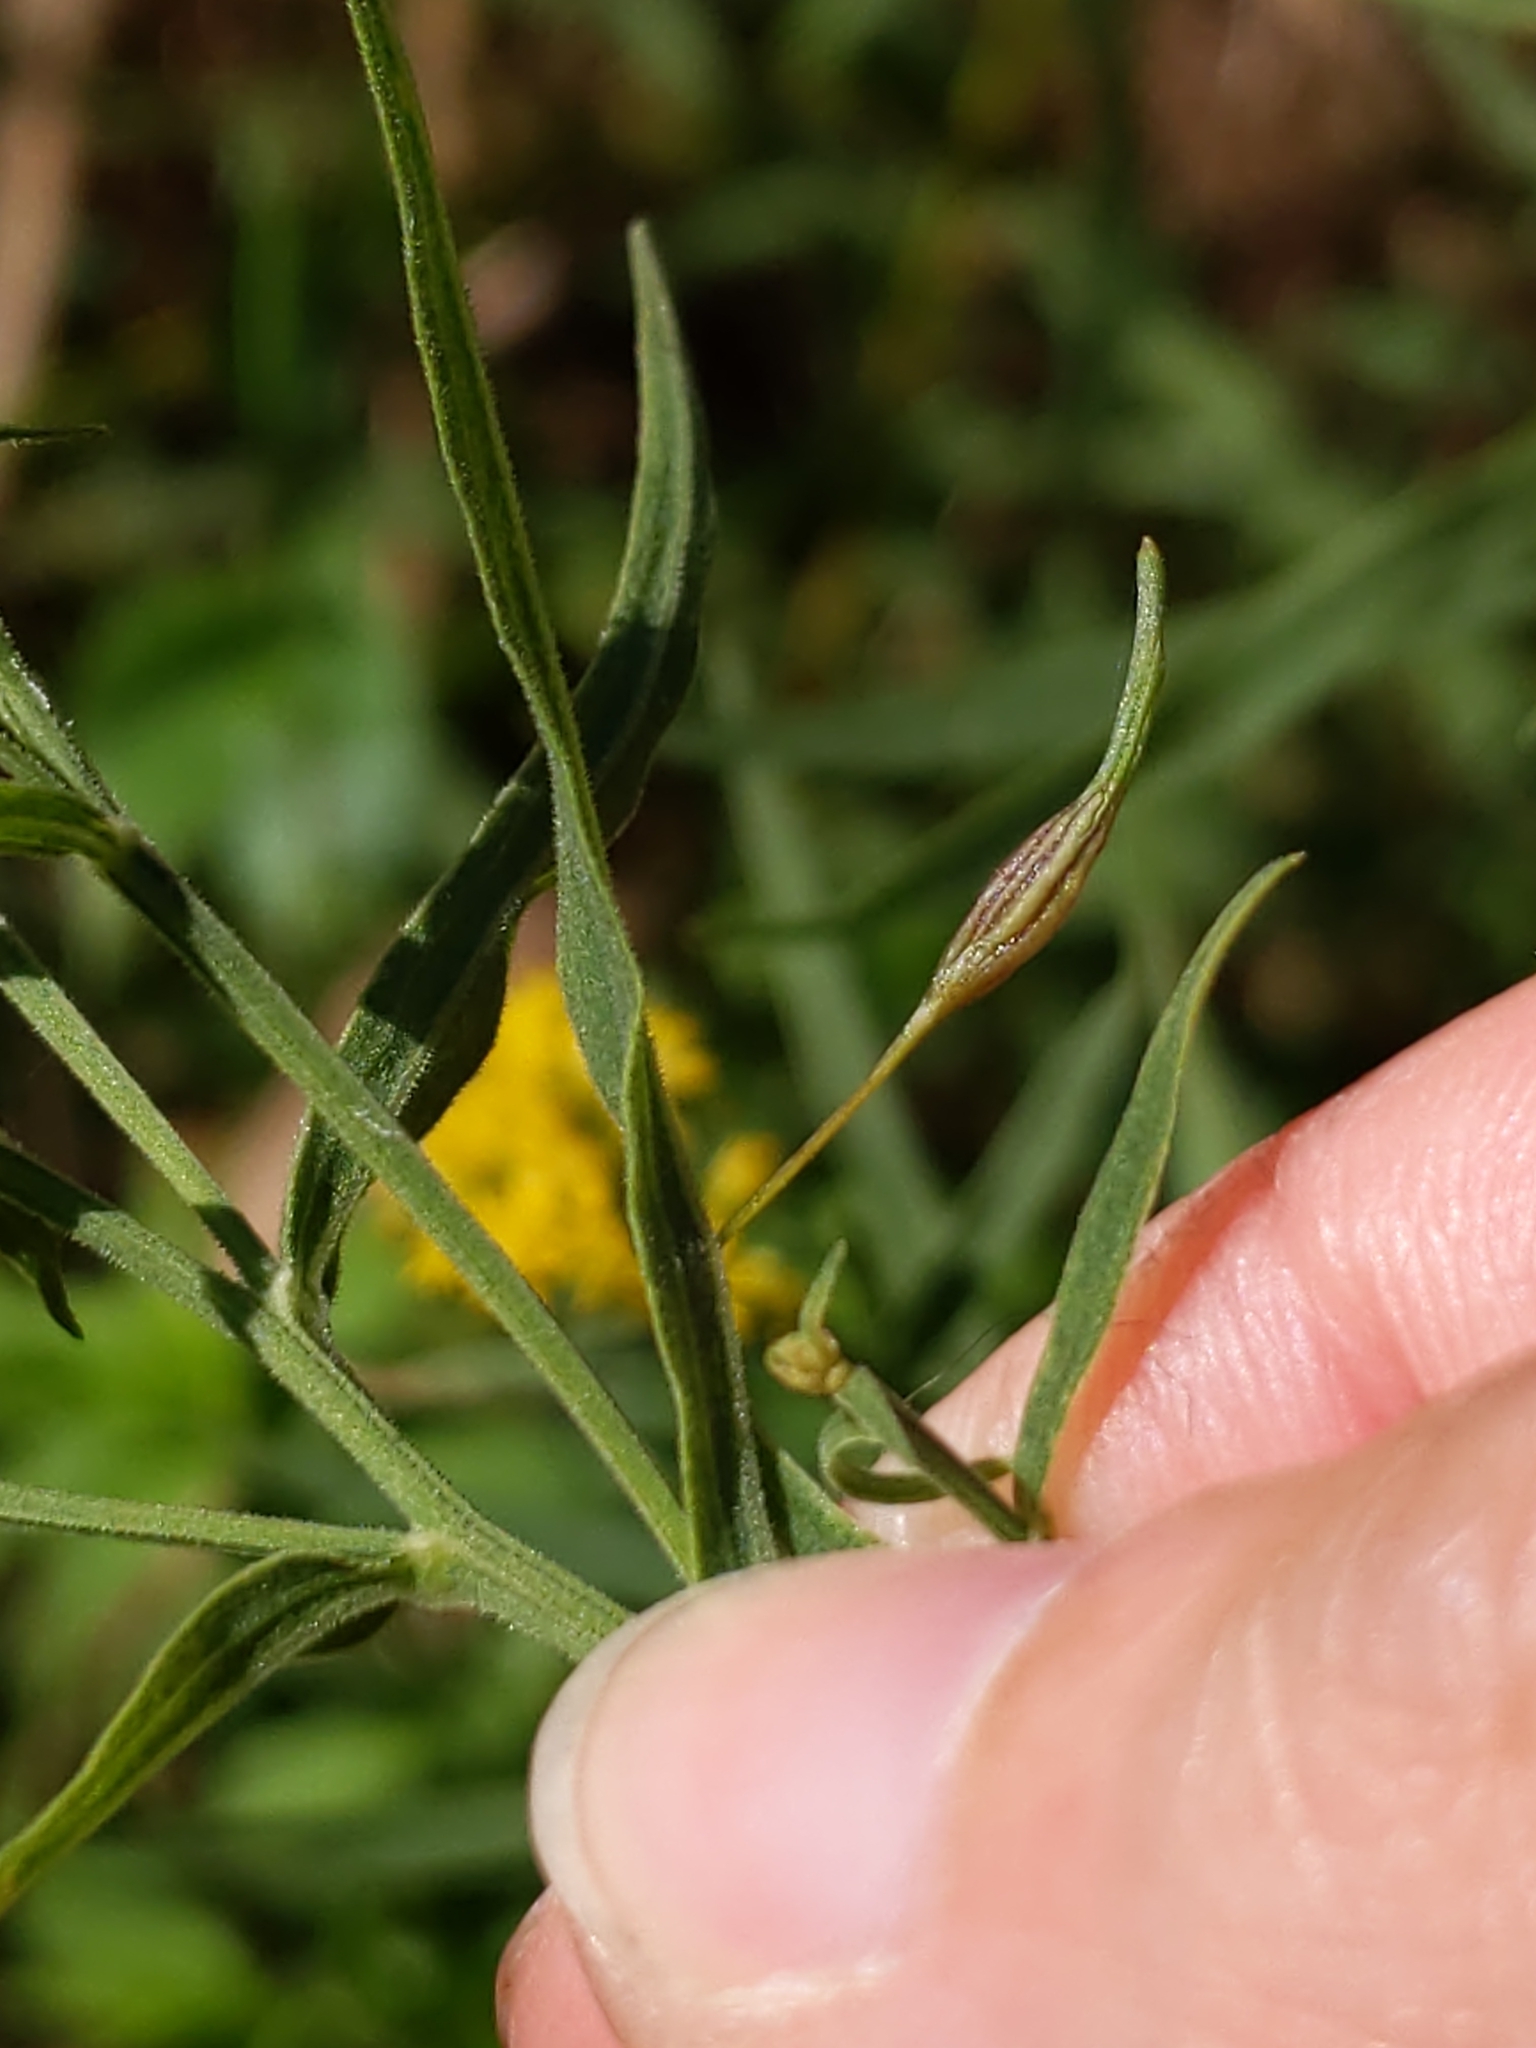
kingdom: Animalia
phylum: Arthropoda
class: Insecta
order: Diptera
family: Cecidomyiidae
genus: Rhopalomyia
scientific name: Rhopalomyia pedicellata
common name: Goldentop pedicellate gall midge
